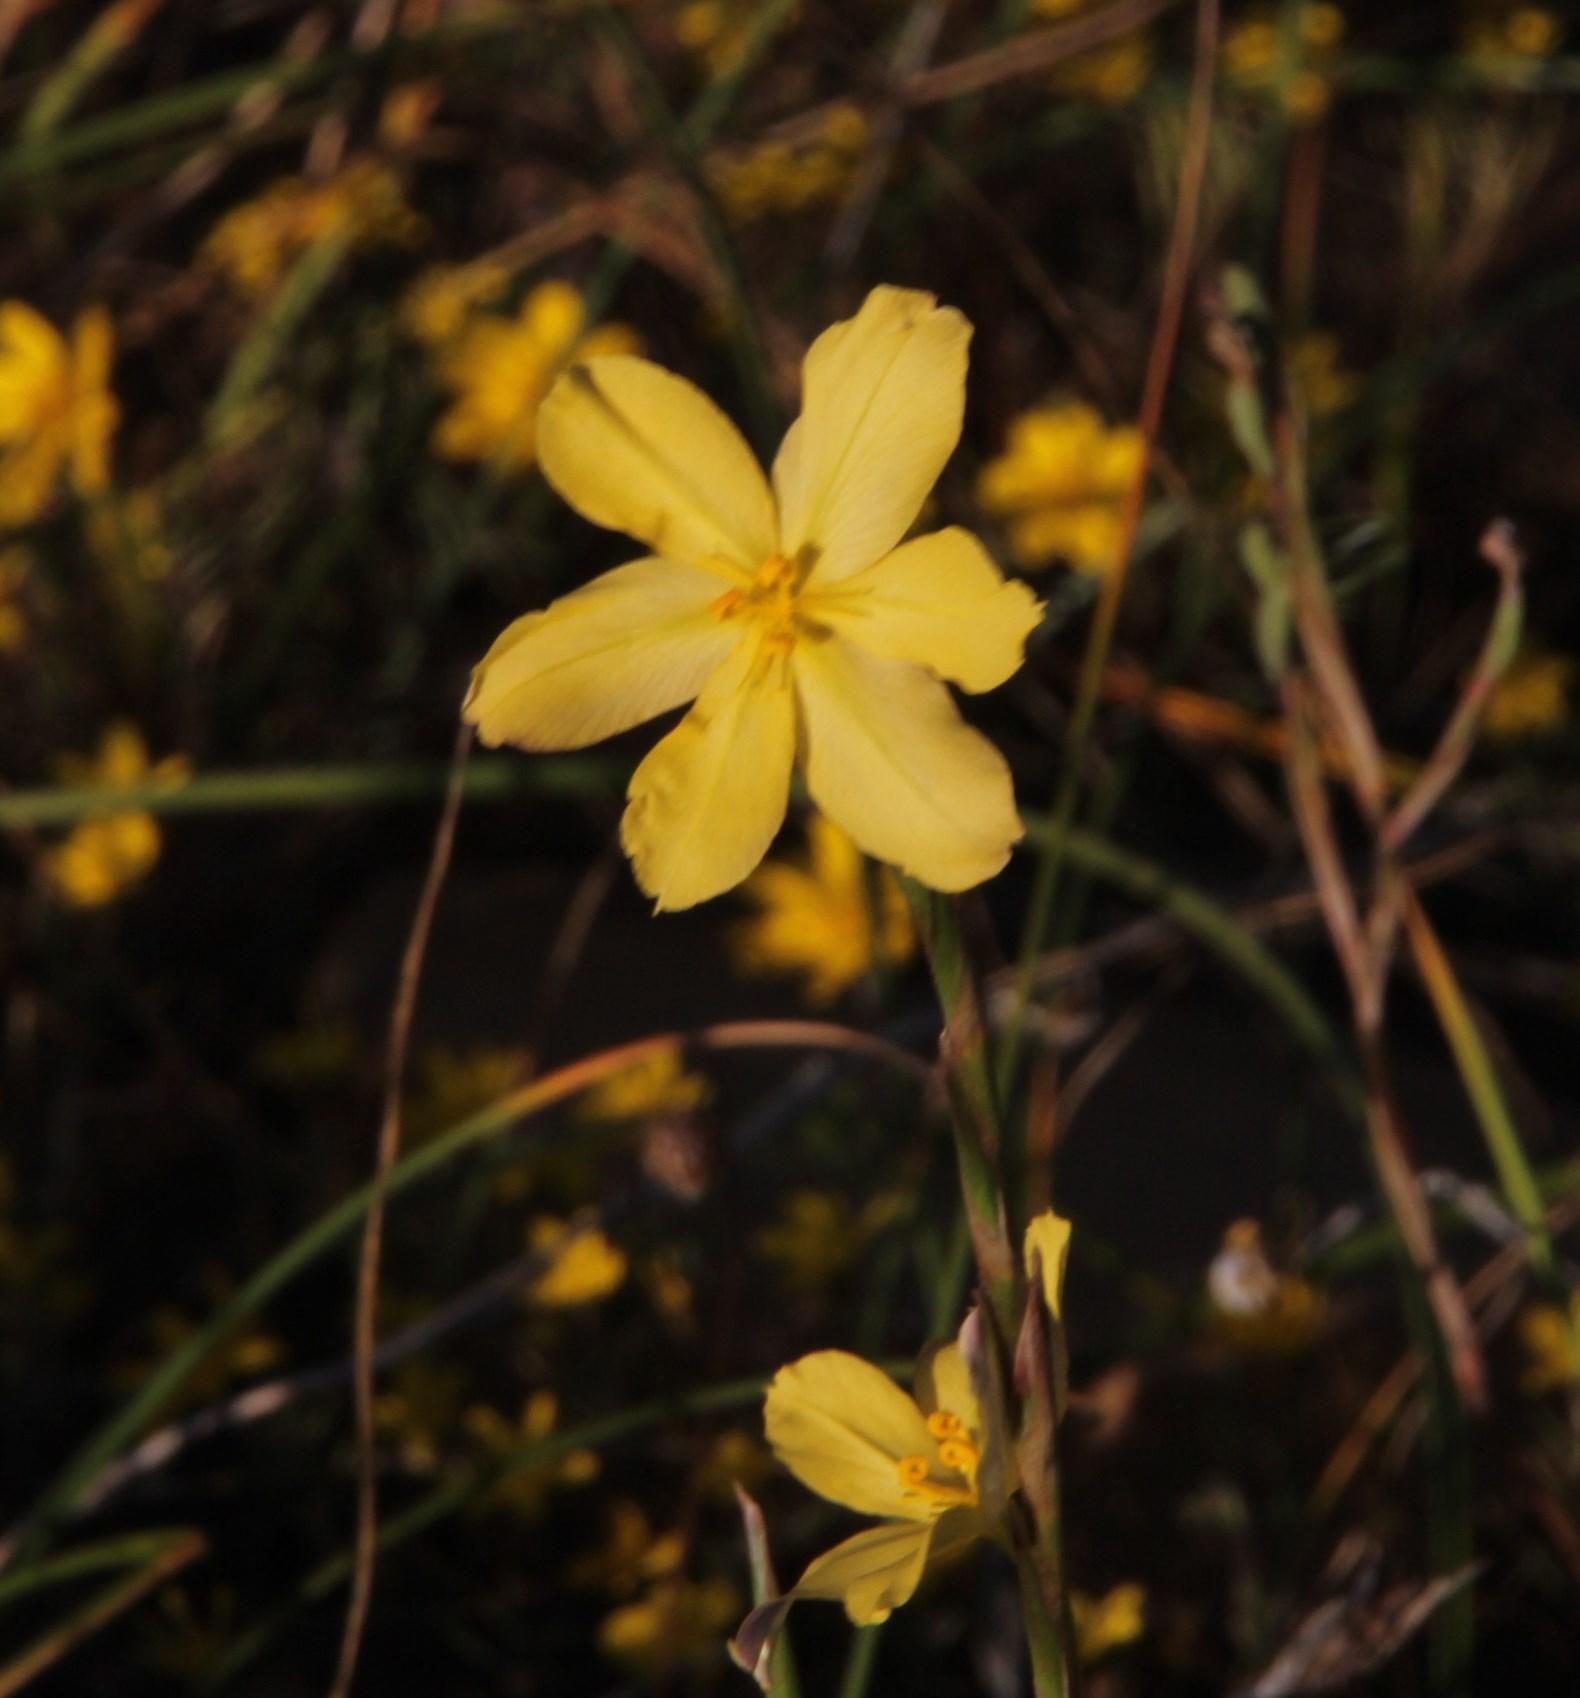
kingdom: Plantae
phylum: Tracheophyta
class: Liliopsida
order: Asparagales
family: Iridaceae
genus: Moraea
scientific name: Moraea lewisiae
